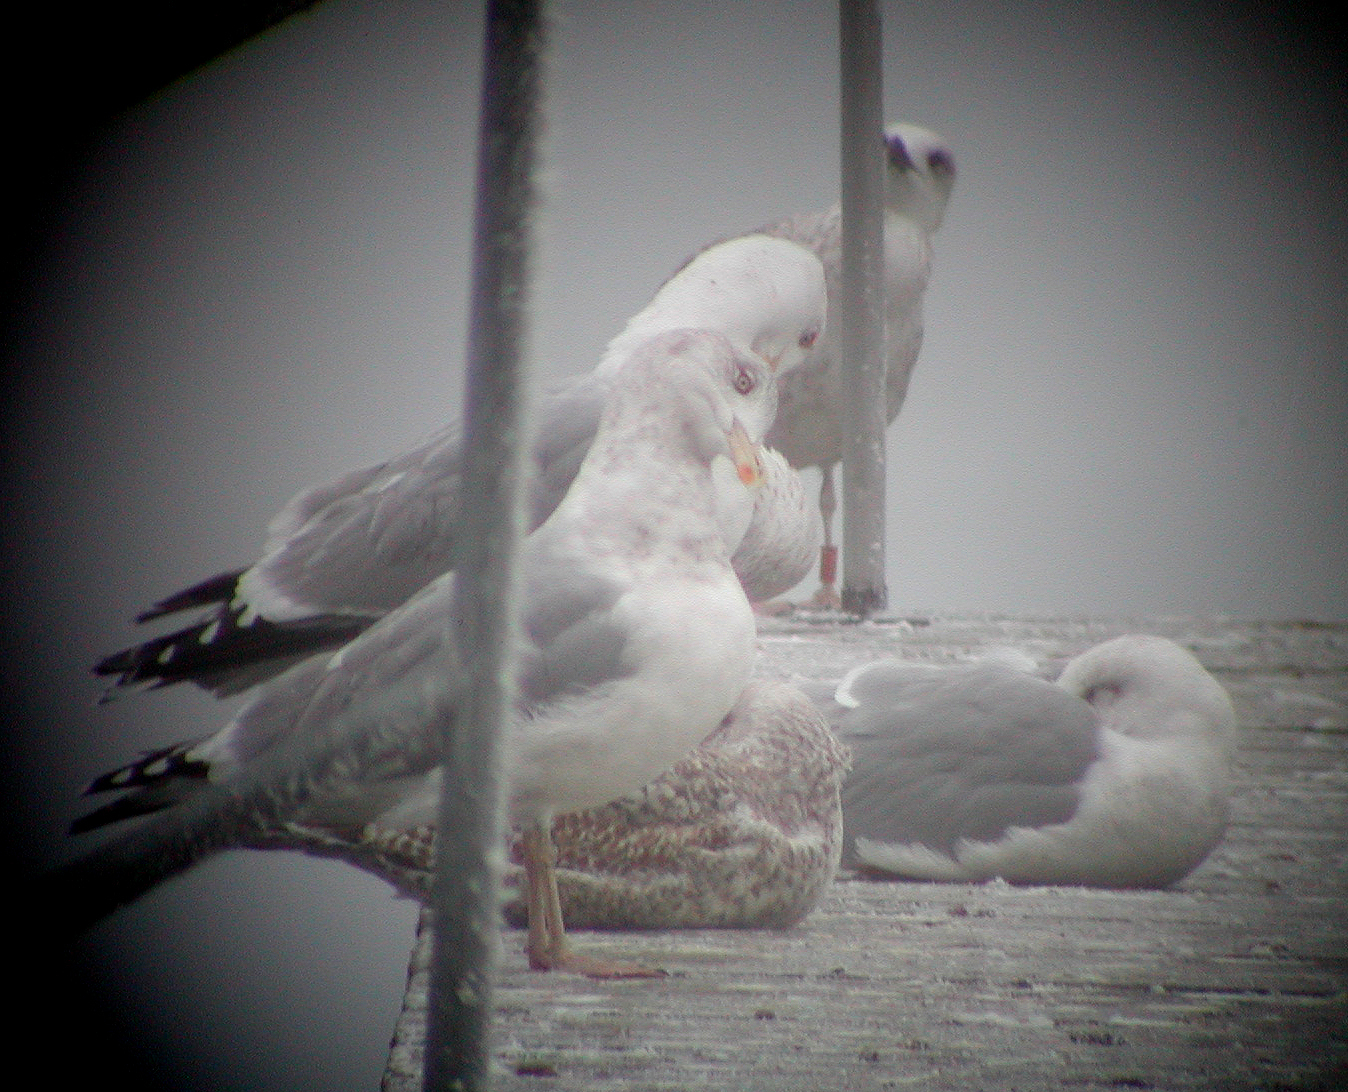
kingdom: Animalia
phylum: Chordata
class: Aves
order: Charadriiformes
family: Laridae
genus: Larus
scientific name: Larus argentatus
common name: Herring gull
